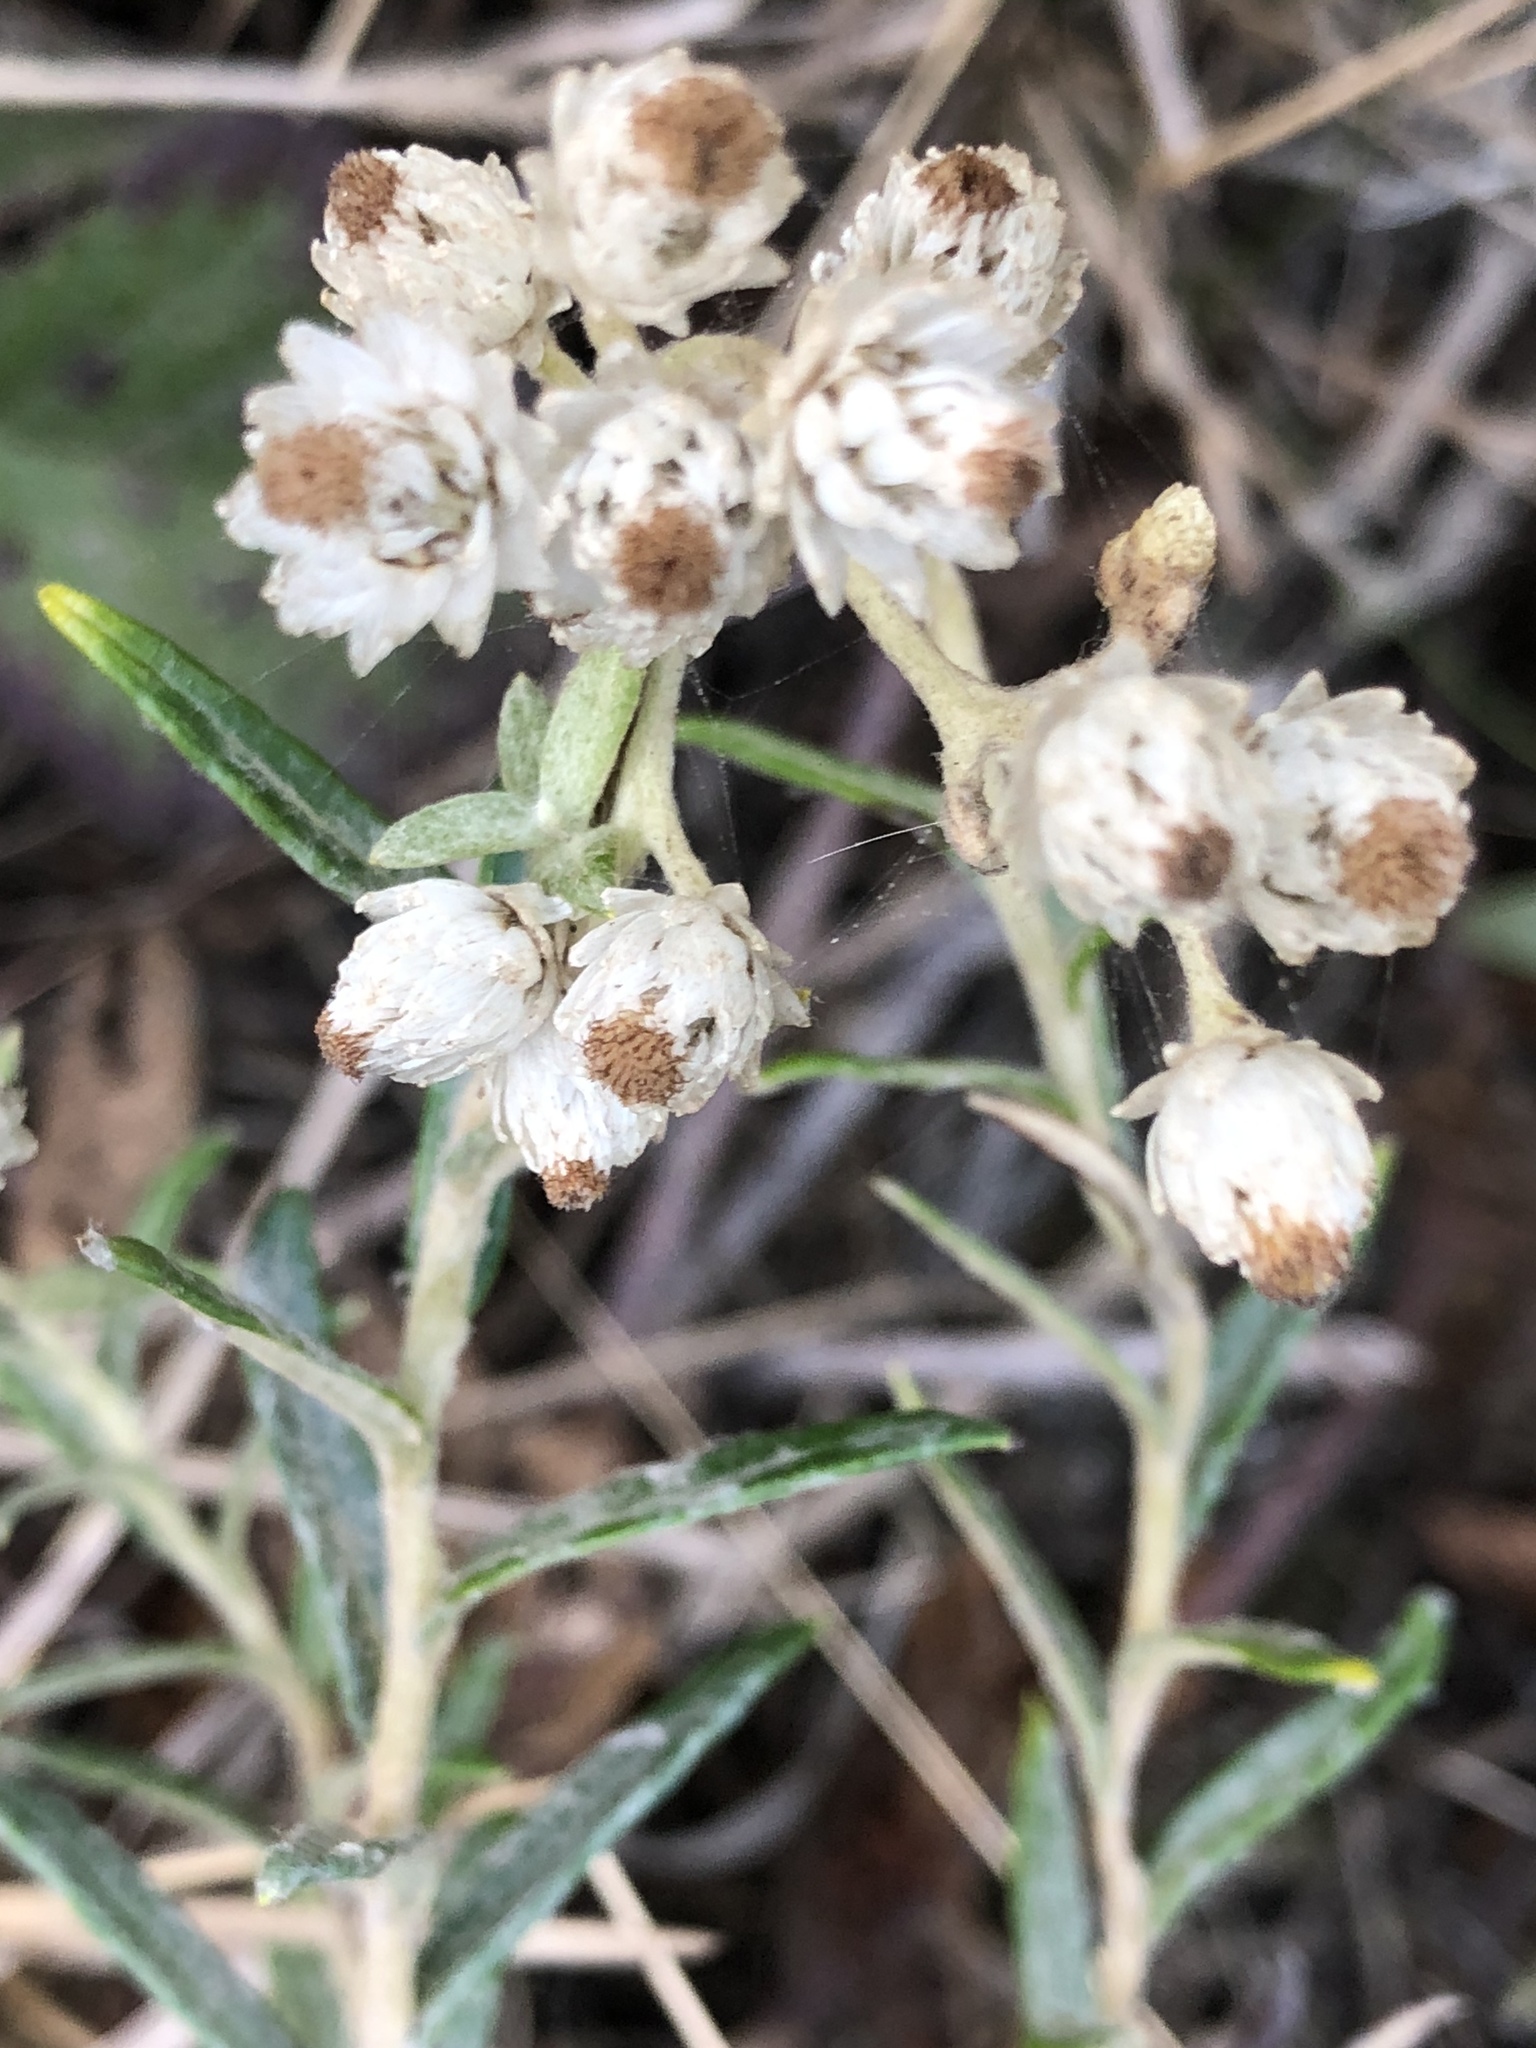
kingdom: Plantae
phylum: Tracheophyta
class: Magnoliopsida
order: Asterales
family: Asteraceae
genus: Anaphalis
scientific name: Anaphalis margaritacea
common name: Pearly everlasting
